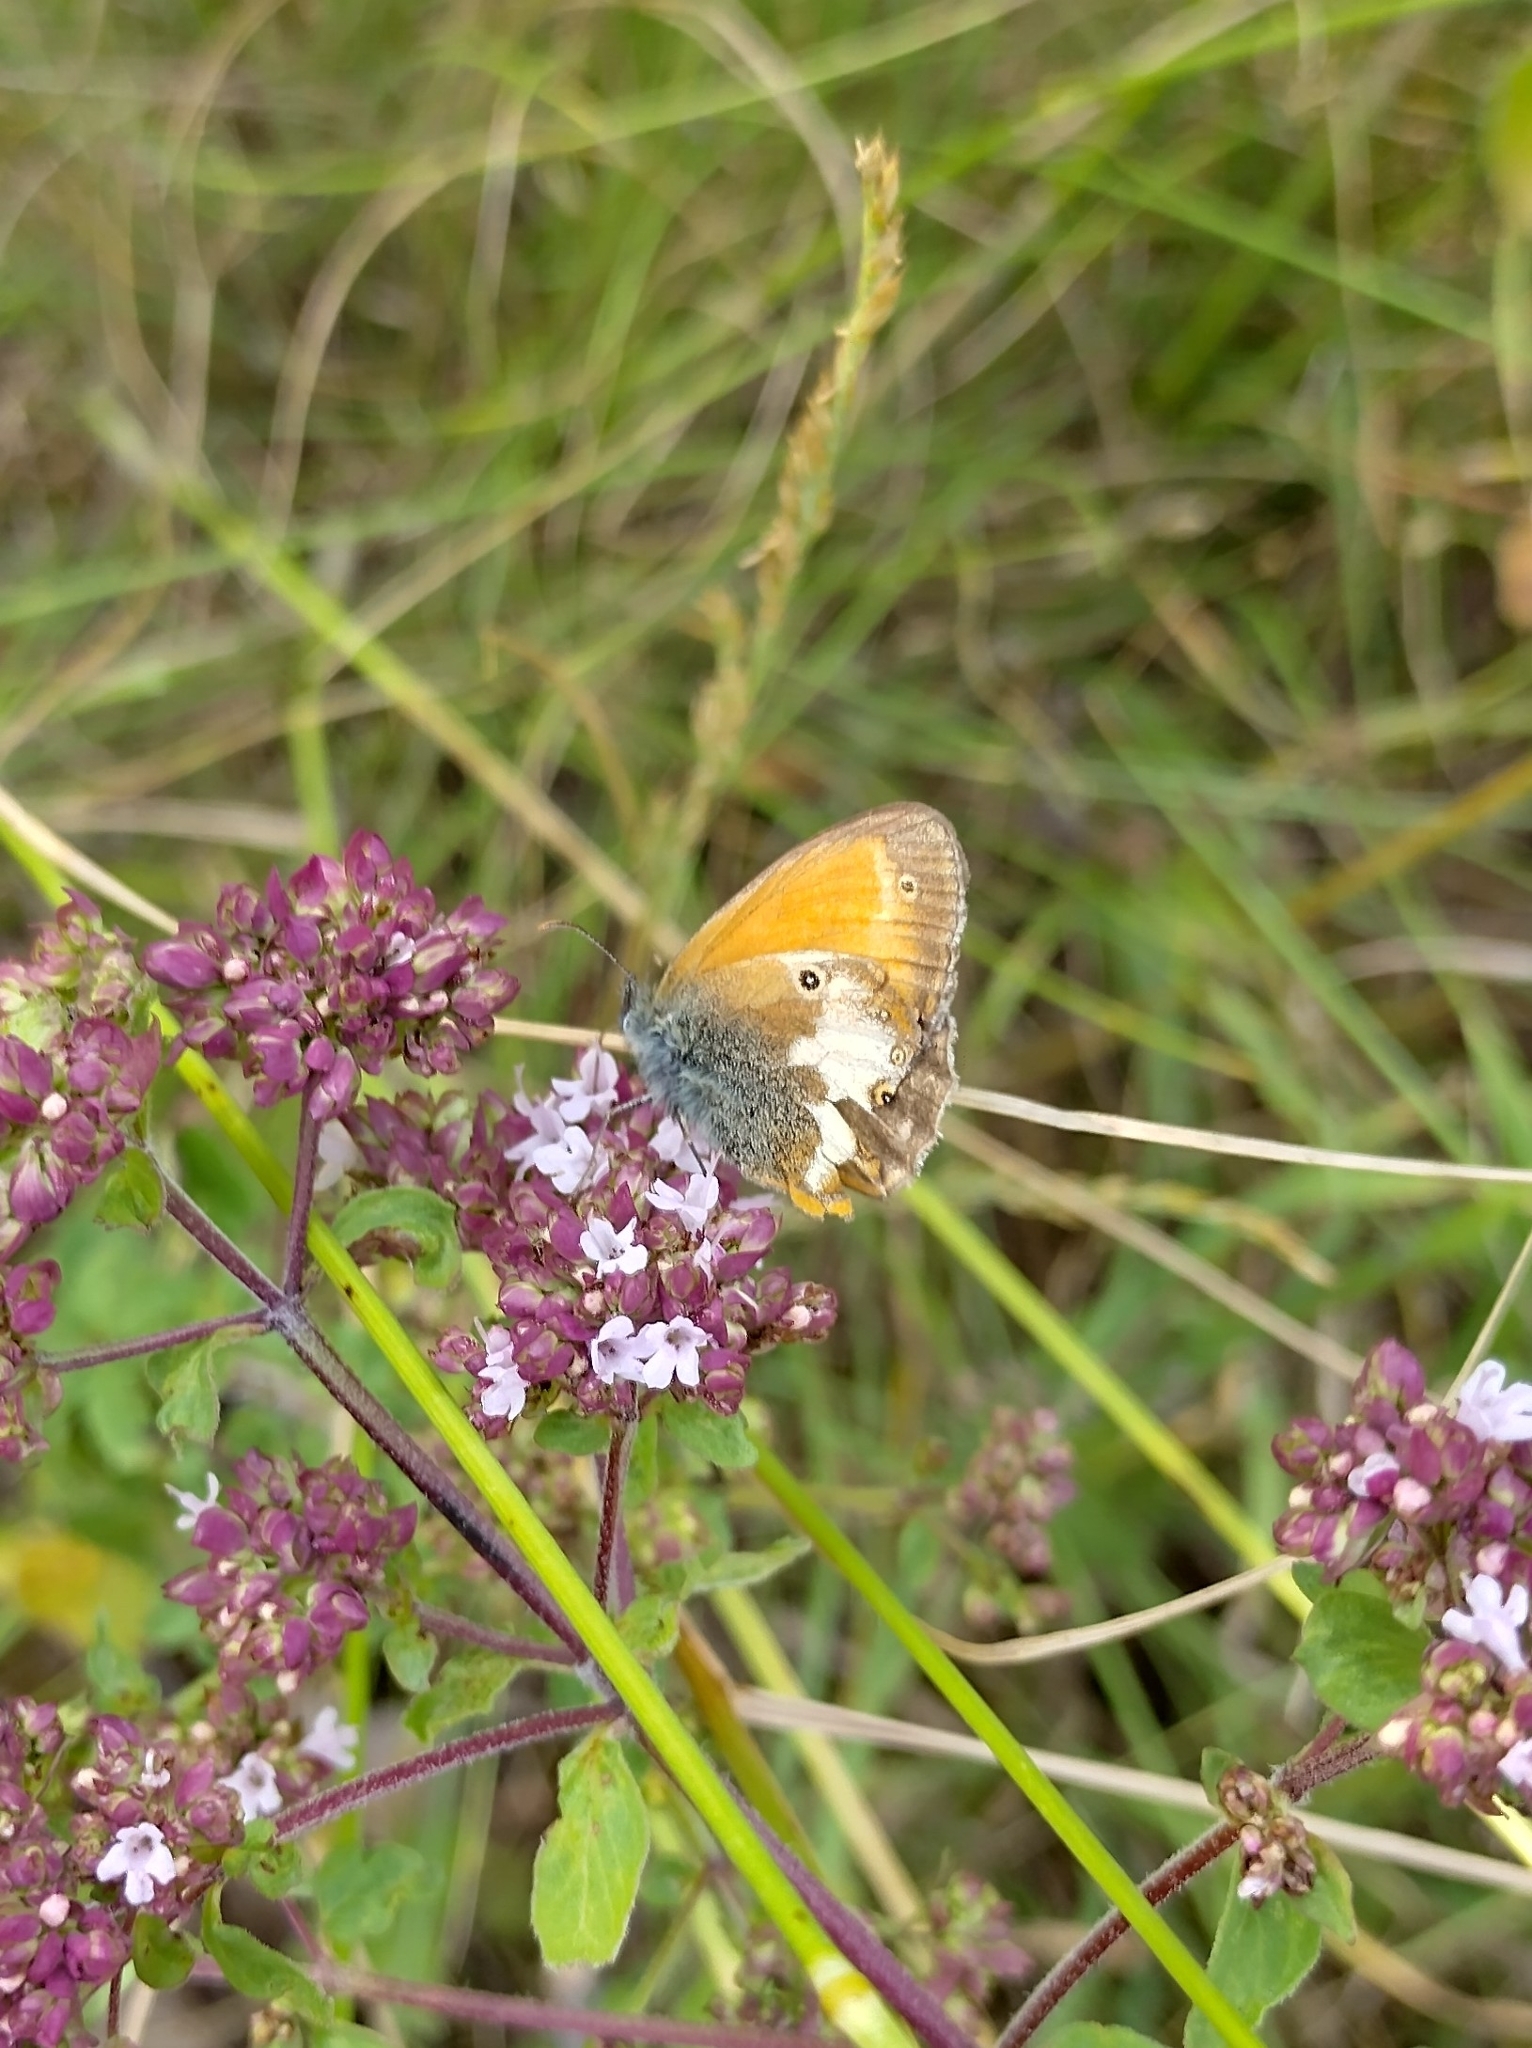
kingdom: Animalia
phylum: Arthropoda
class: Insecta
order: Lepidoptera
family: Nymphalidae
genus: Coenonympha
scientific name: Coenonympha arcania
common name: Pearly heath
